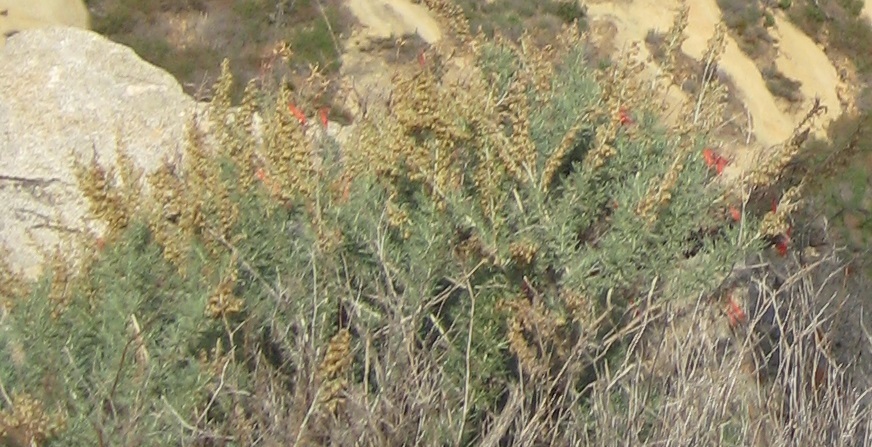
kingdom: Plantae
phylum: Tracheophyta
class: Magnoliopsida
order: Asterales
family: Asteraceae
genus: Artemisia
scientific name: Artemisia californica
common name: California sagebrush
